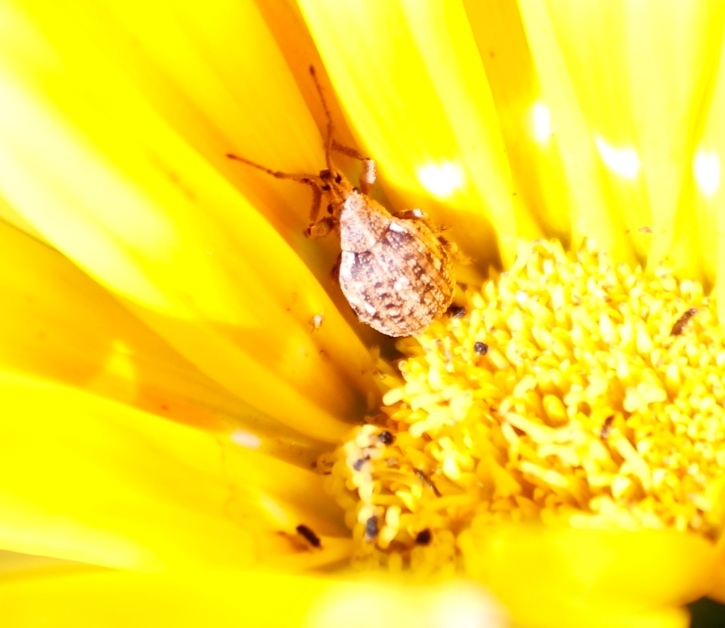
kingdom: Animalia
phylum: Arthropoda
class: Insecta
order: Coleoptera
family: Curculionidae
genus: Ellimenistes
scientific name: Ellimenistes laesicollis
